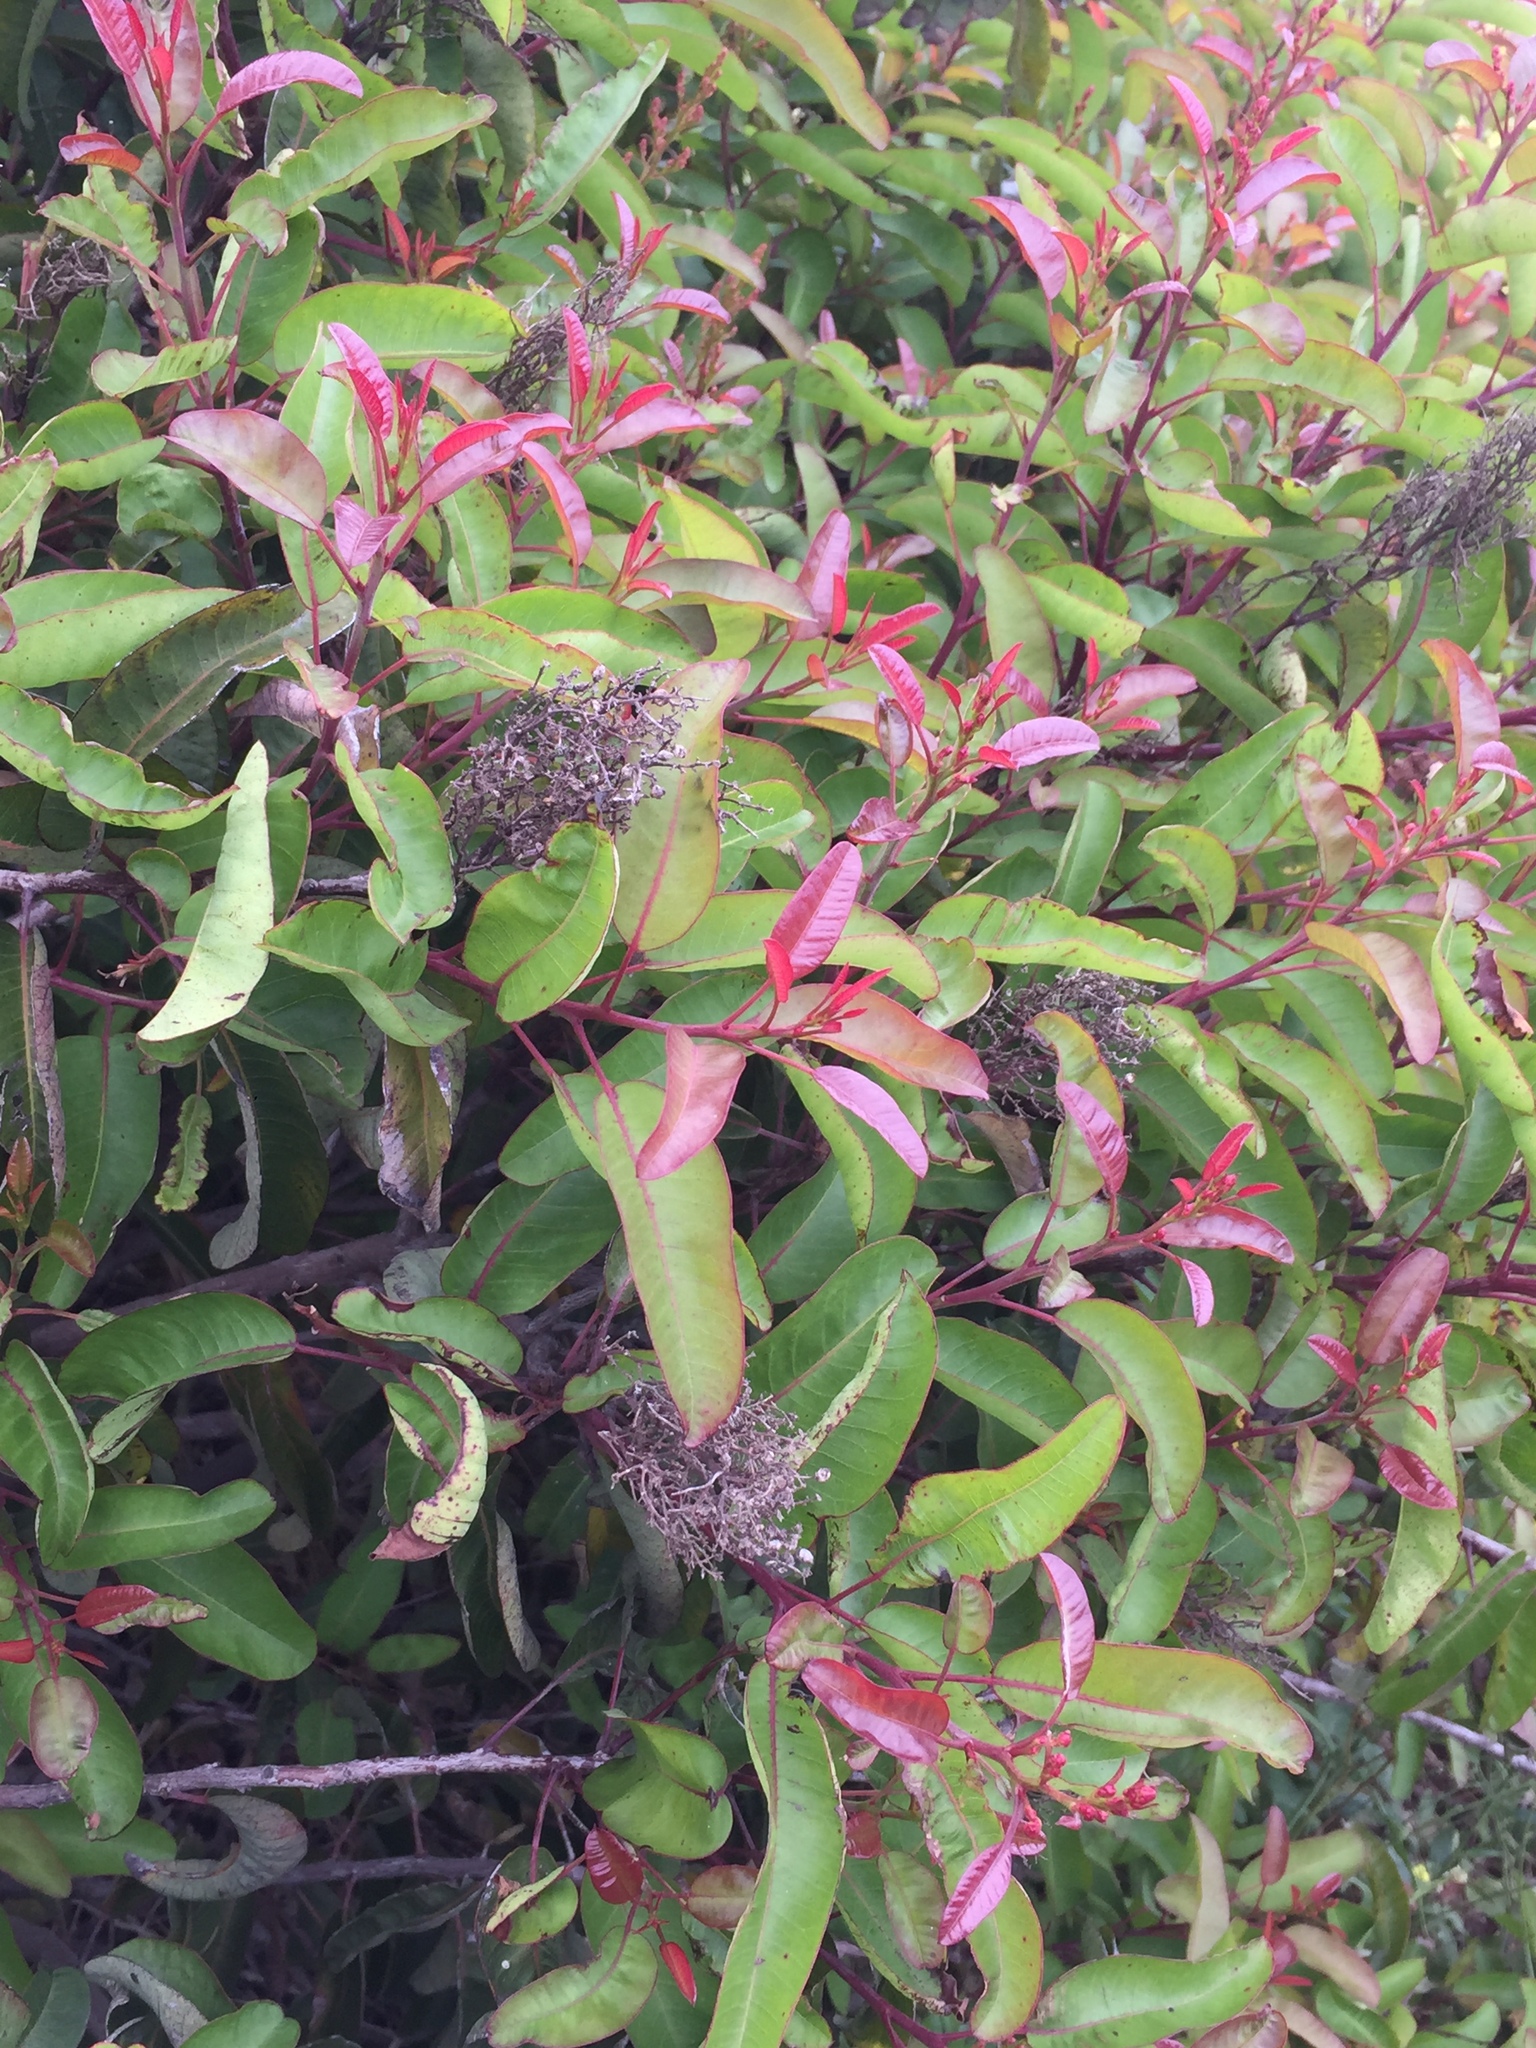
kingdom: Plantae
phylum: Tracheophyta
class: Magnoliopsida
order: Sapindales
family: Anacardiaceae
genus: Malosma
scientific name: Malosma laurina
